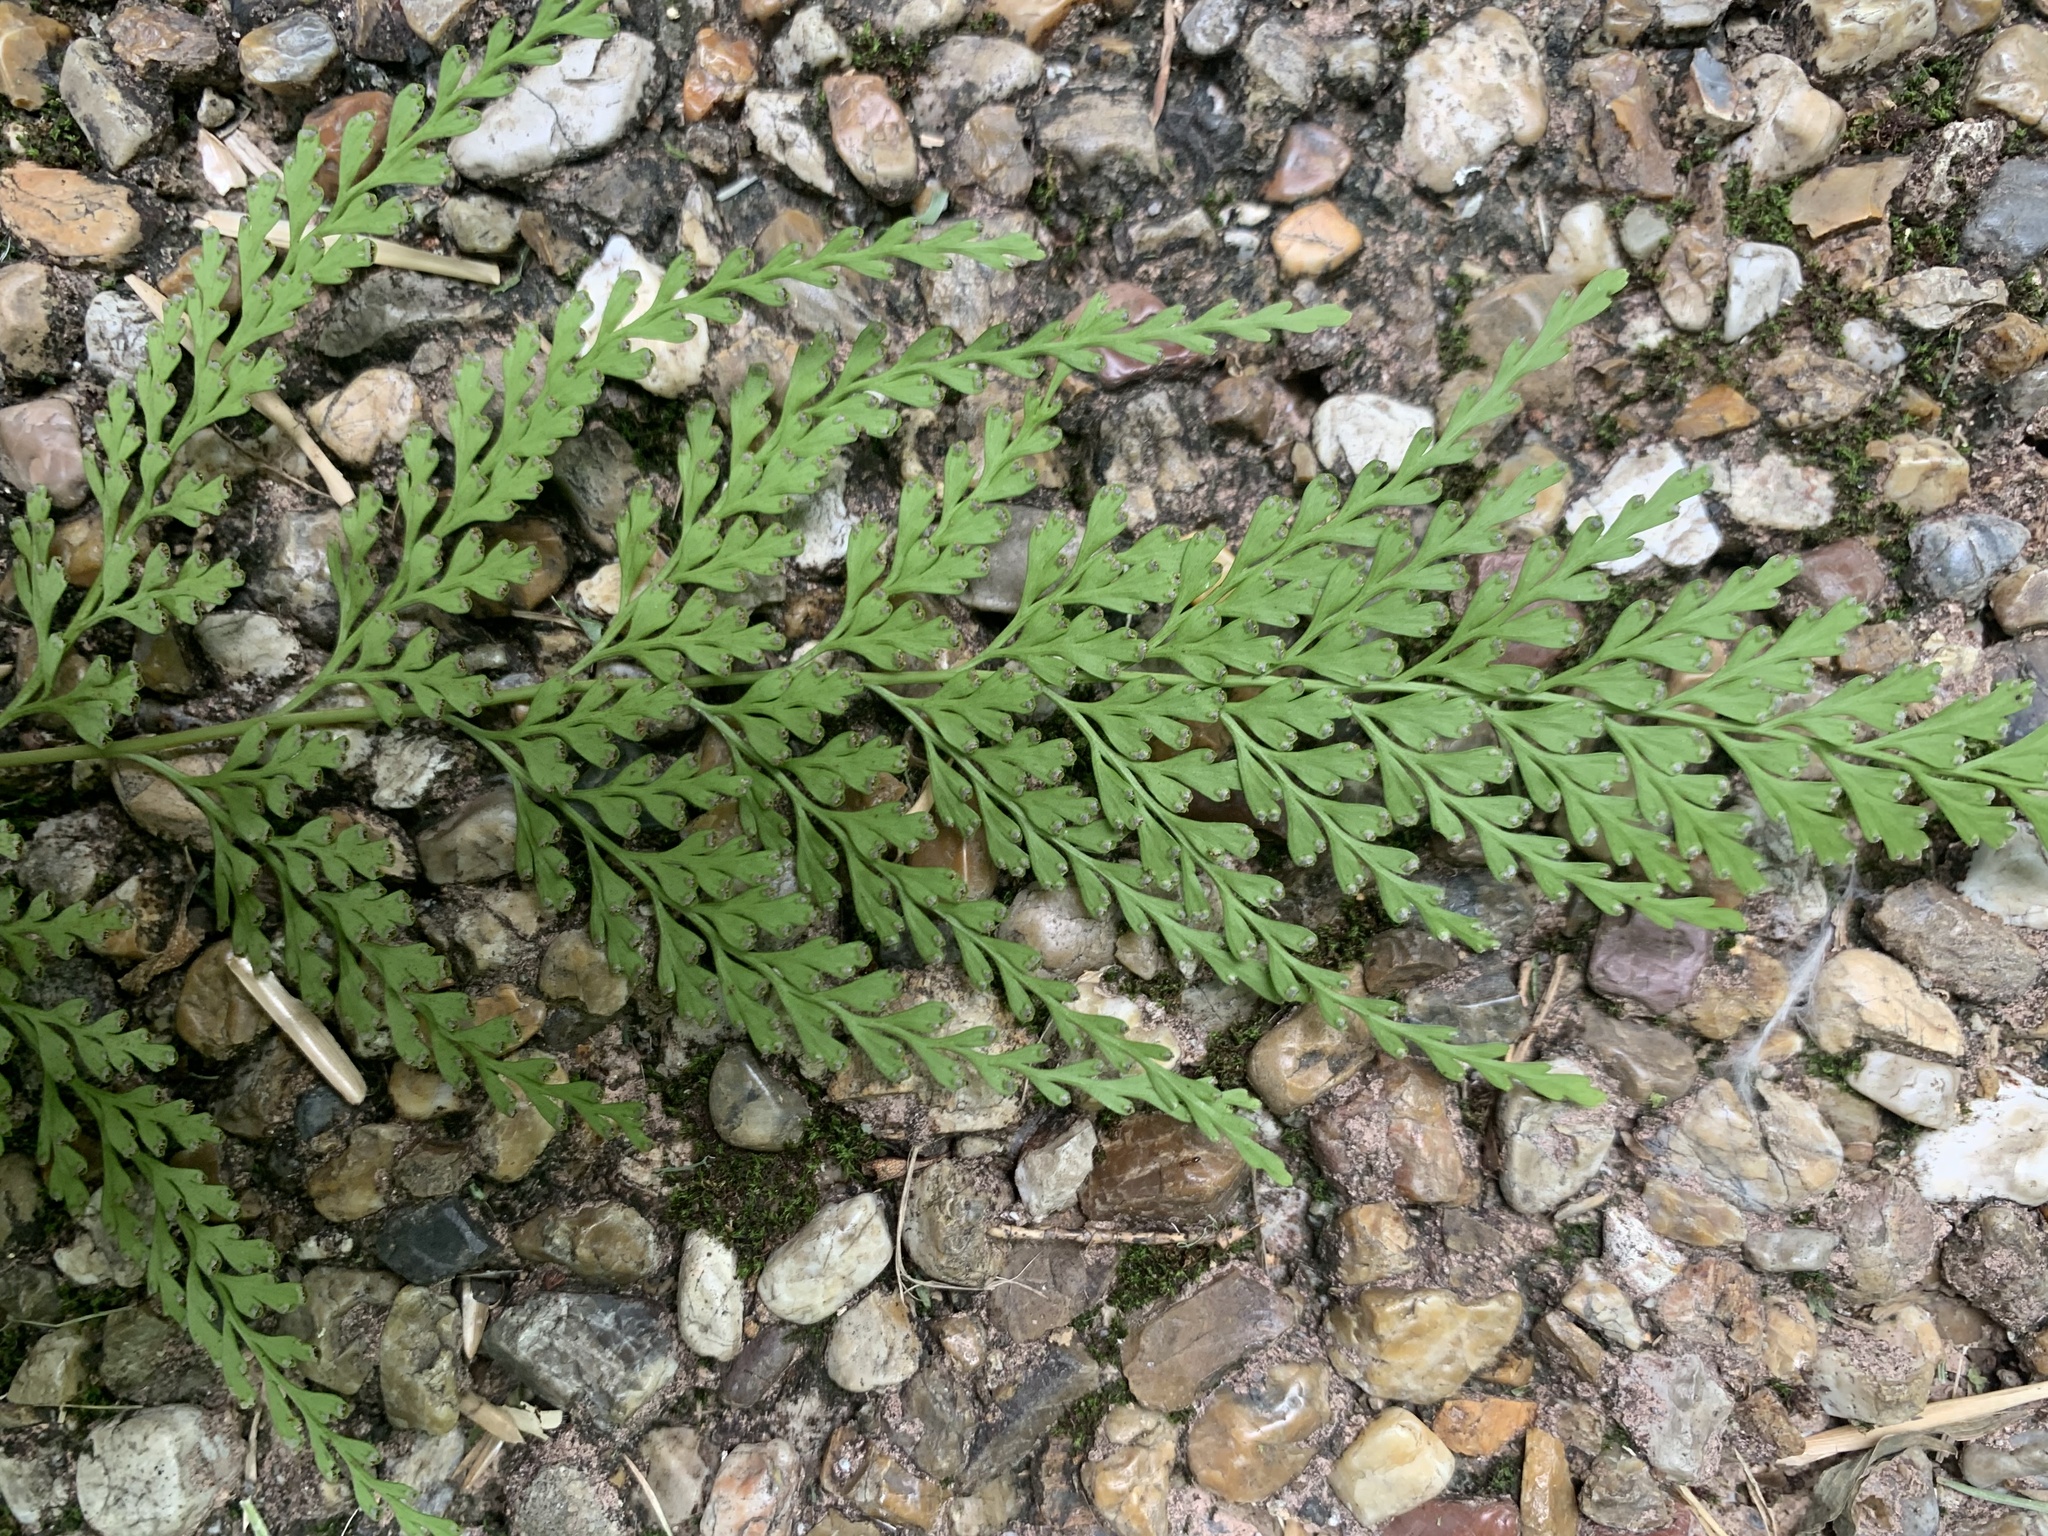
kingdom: Plantae
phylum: Tracheophyta
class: Polypodiopsida
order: Polypodiales
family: Lindsaeaceae
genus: Odontosoria
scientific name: Odontosoria chinensis
